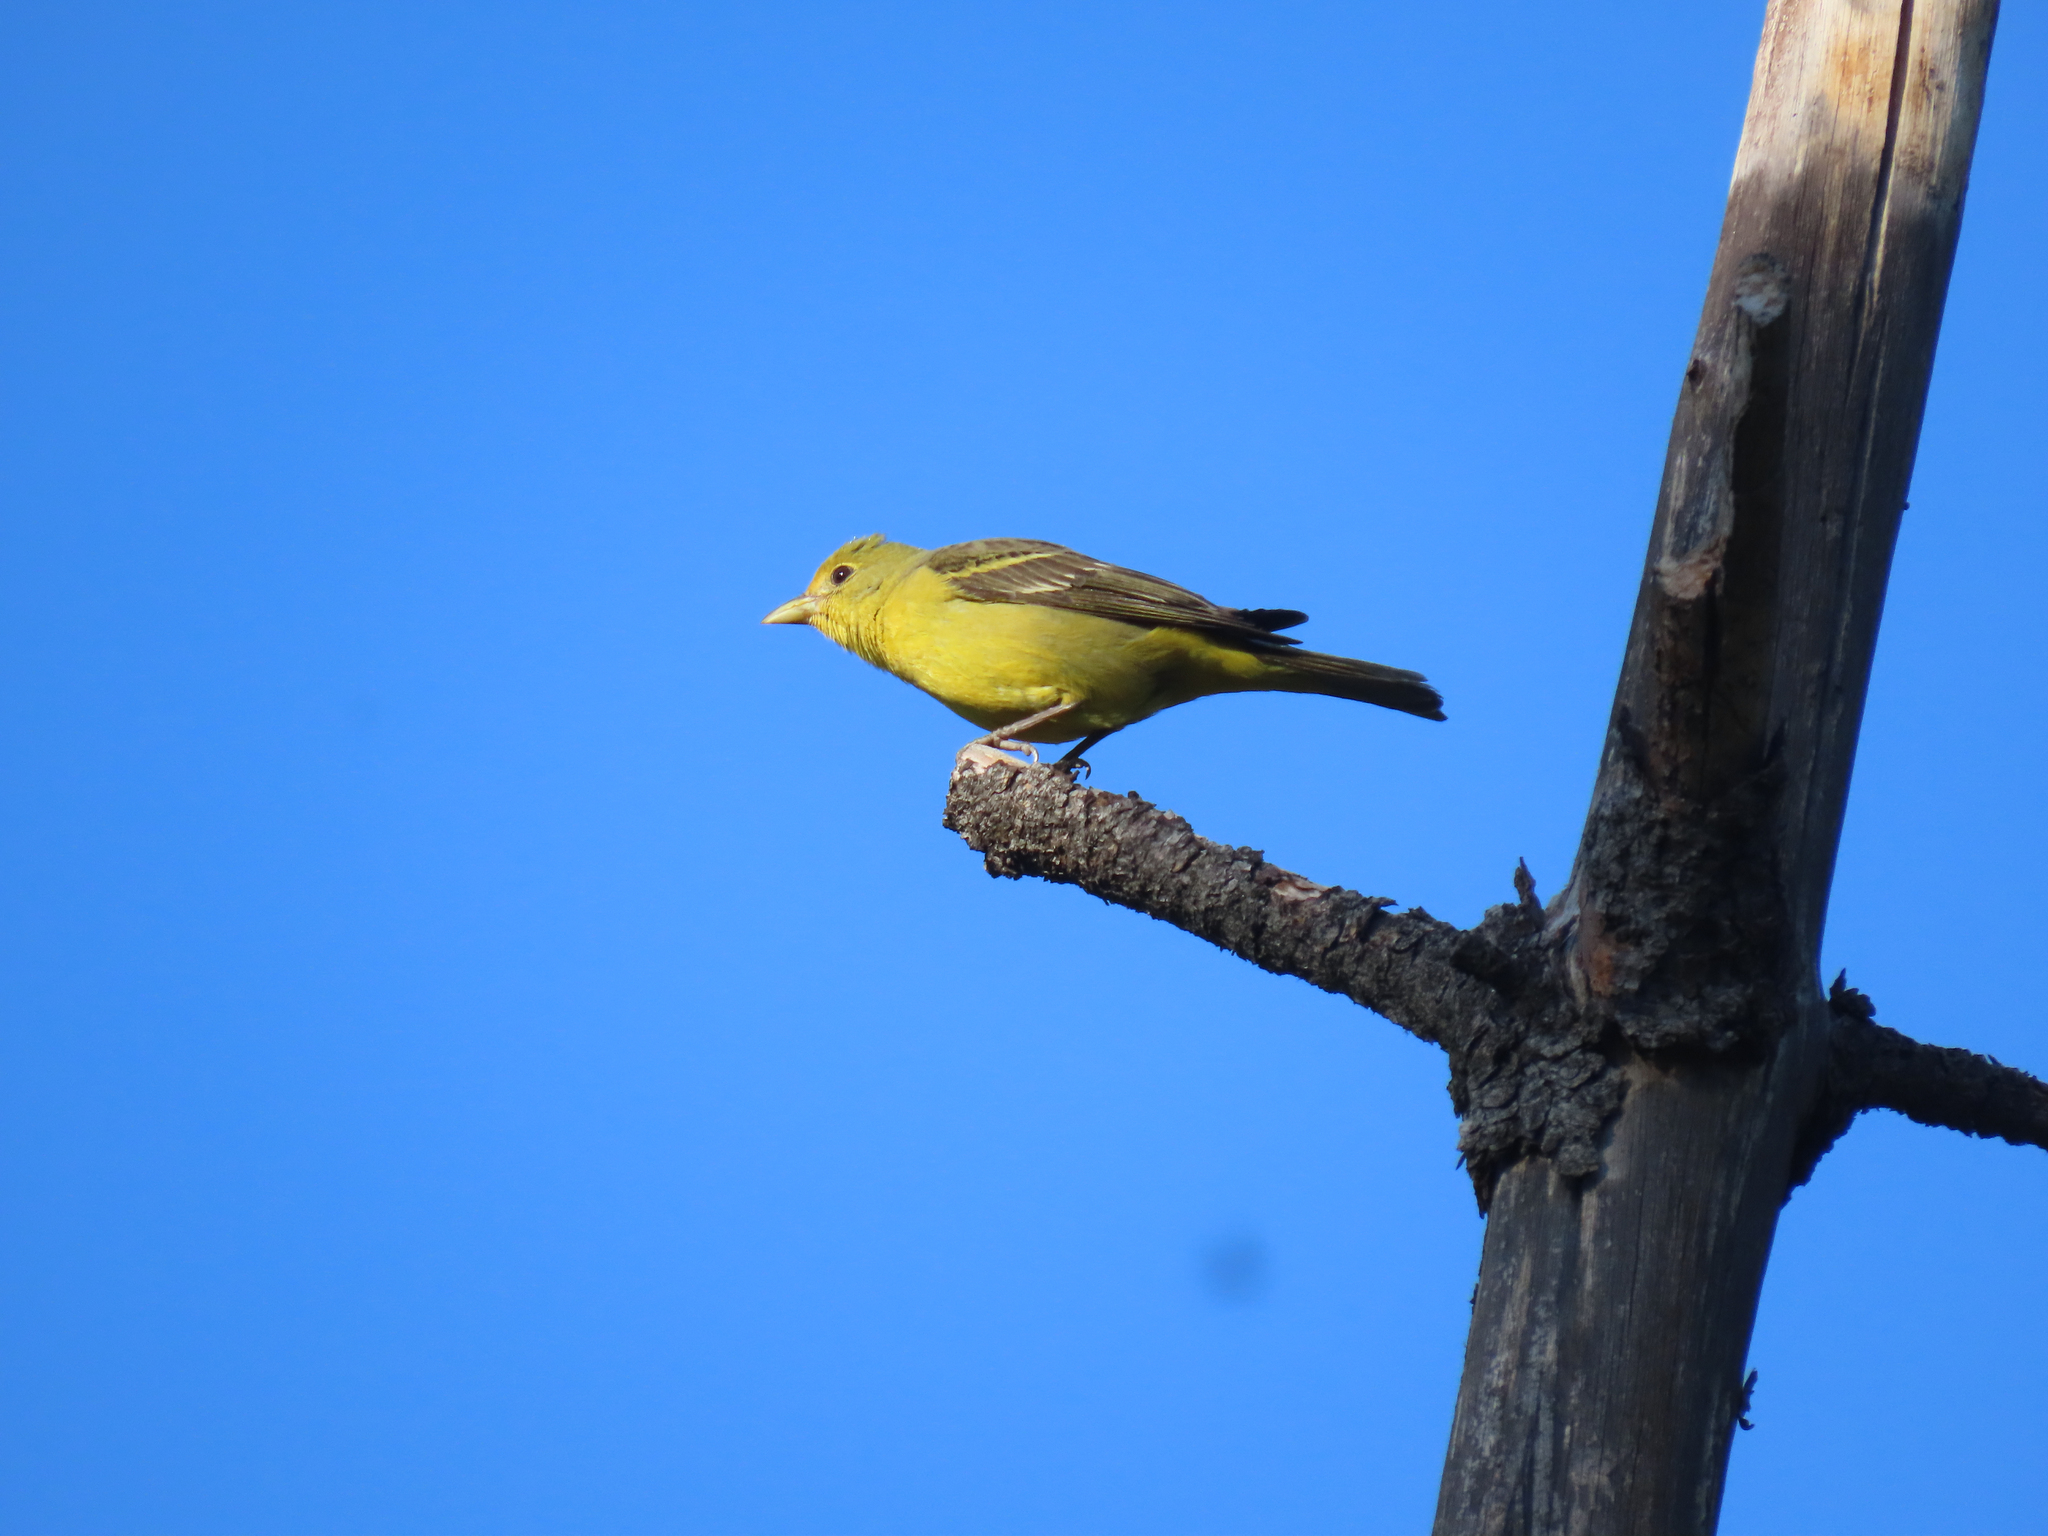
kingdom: Animalia
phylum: Chordata
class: Aves
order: Passeriformes
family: Cardinalidae
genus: Piranga
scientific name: Piranga ludoviciana
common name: Western tanager
